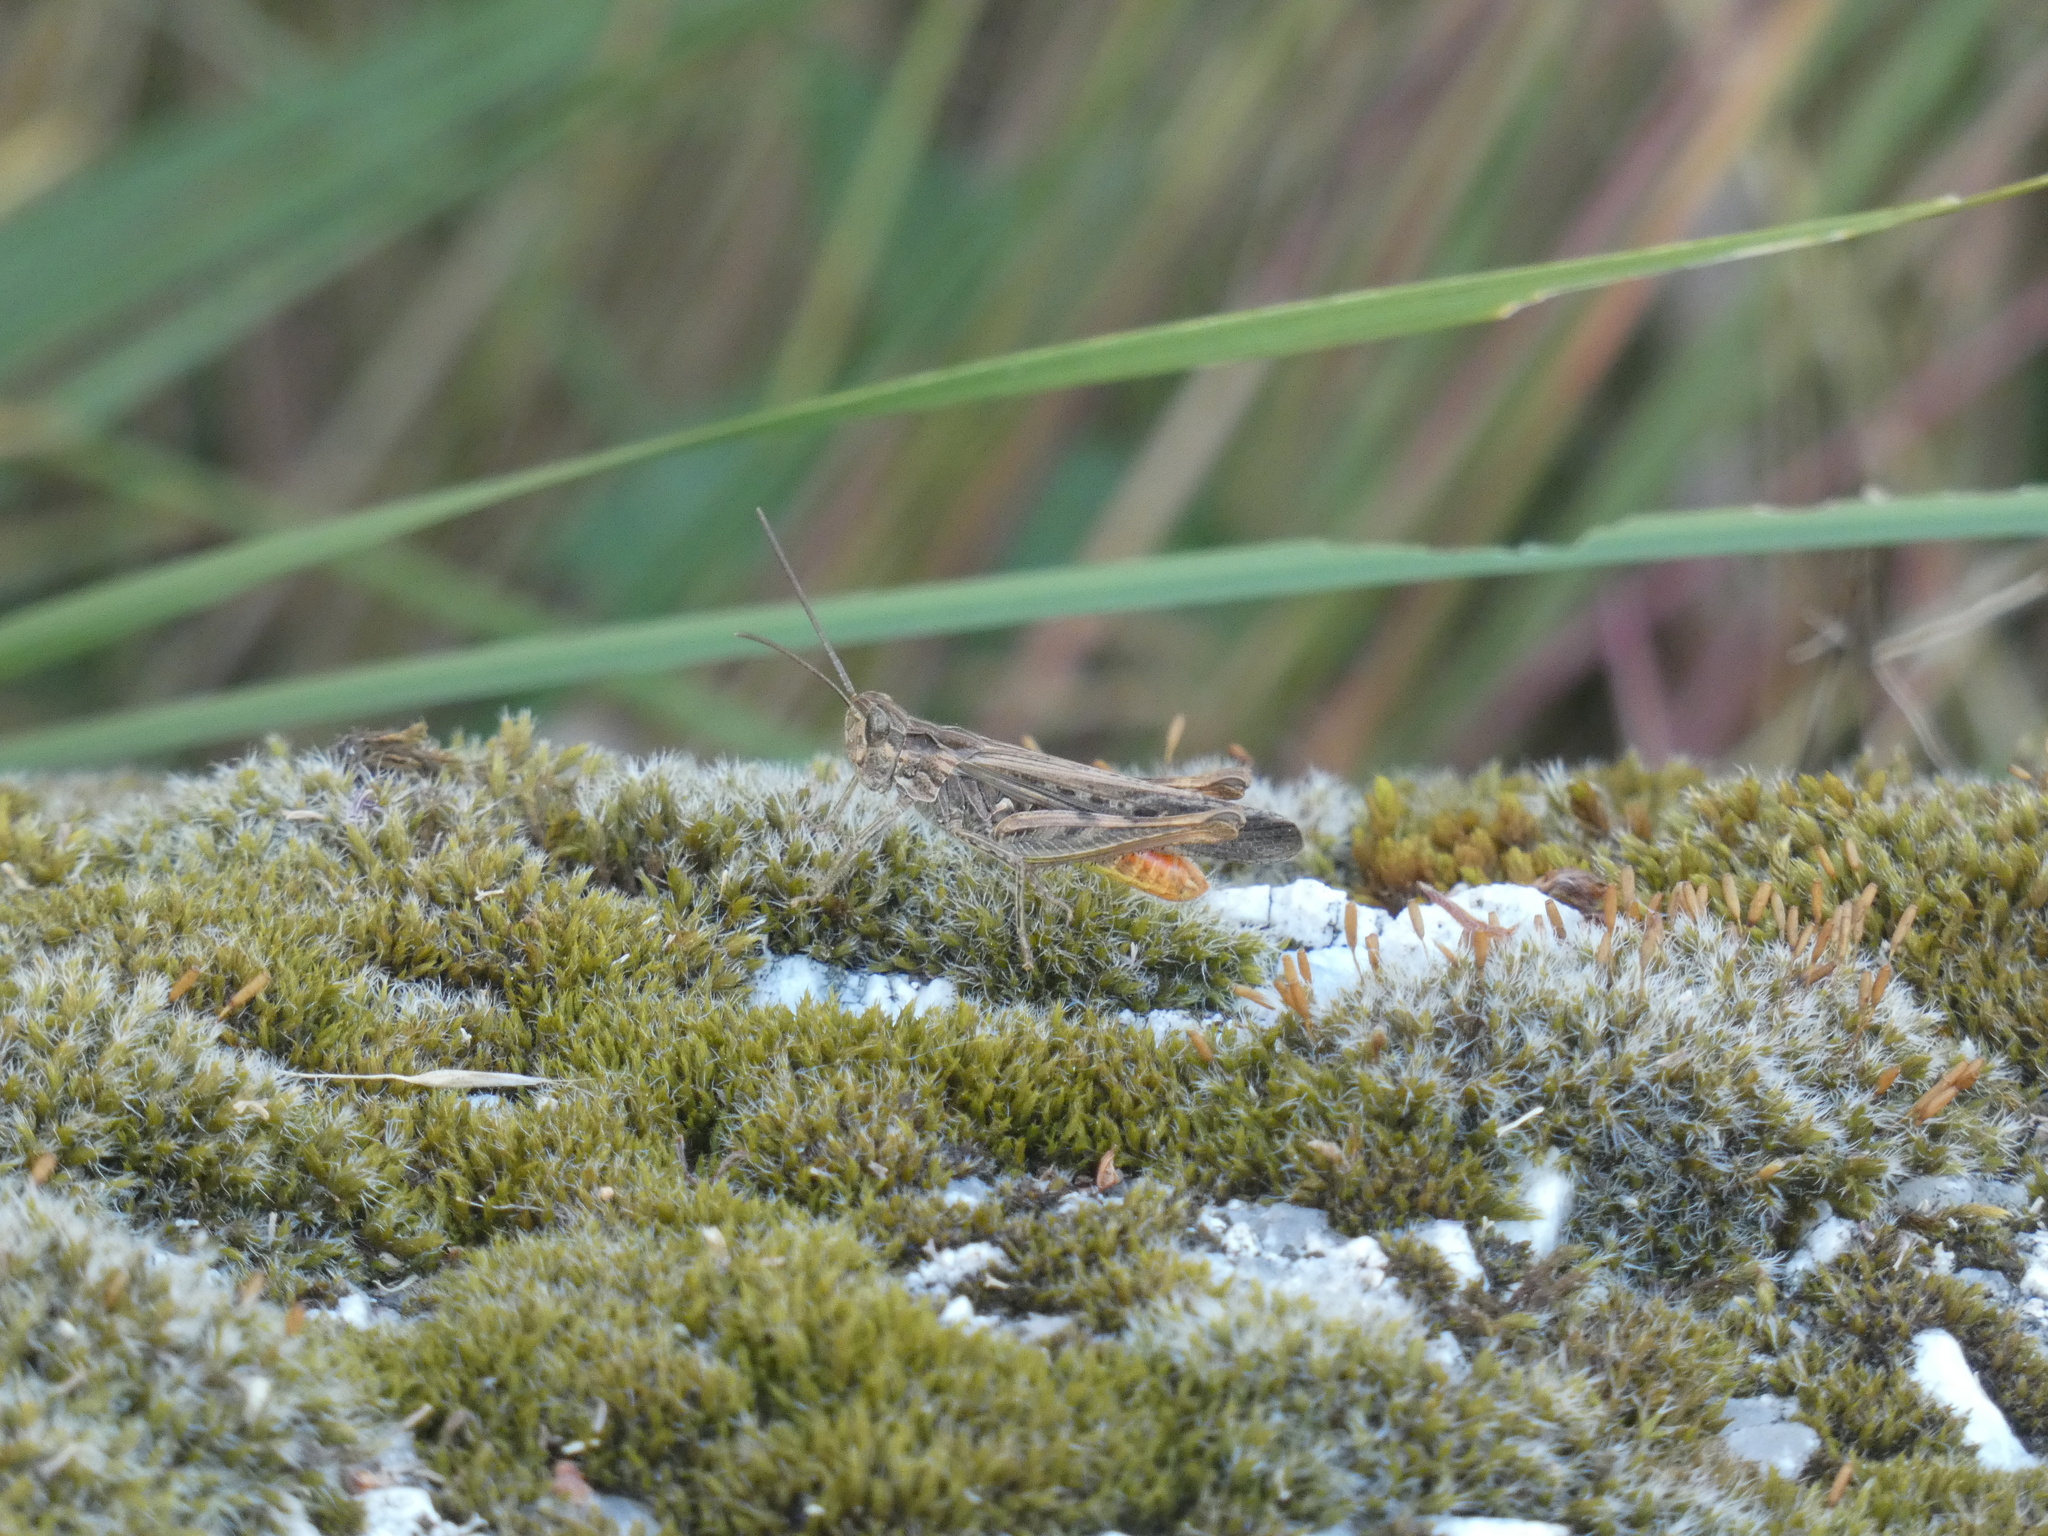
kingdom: Animalia
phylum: Arthropoda
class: Insecta
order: Orthoptera
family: Acrididae
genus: Chorthippus
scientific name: Chorthippus brunneus
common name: Field grasshopper
